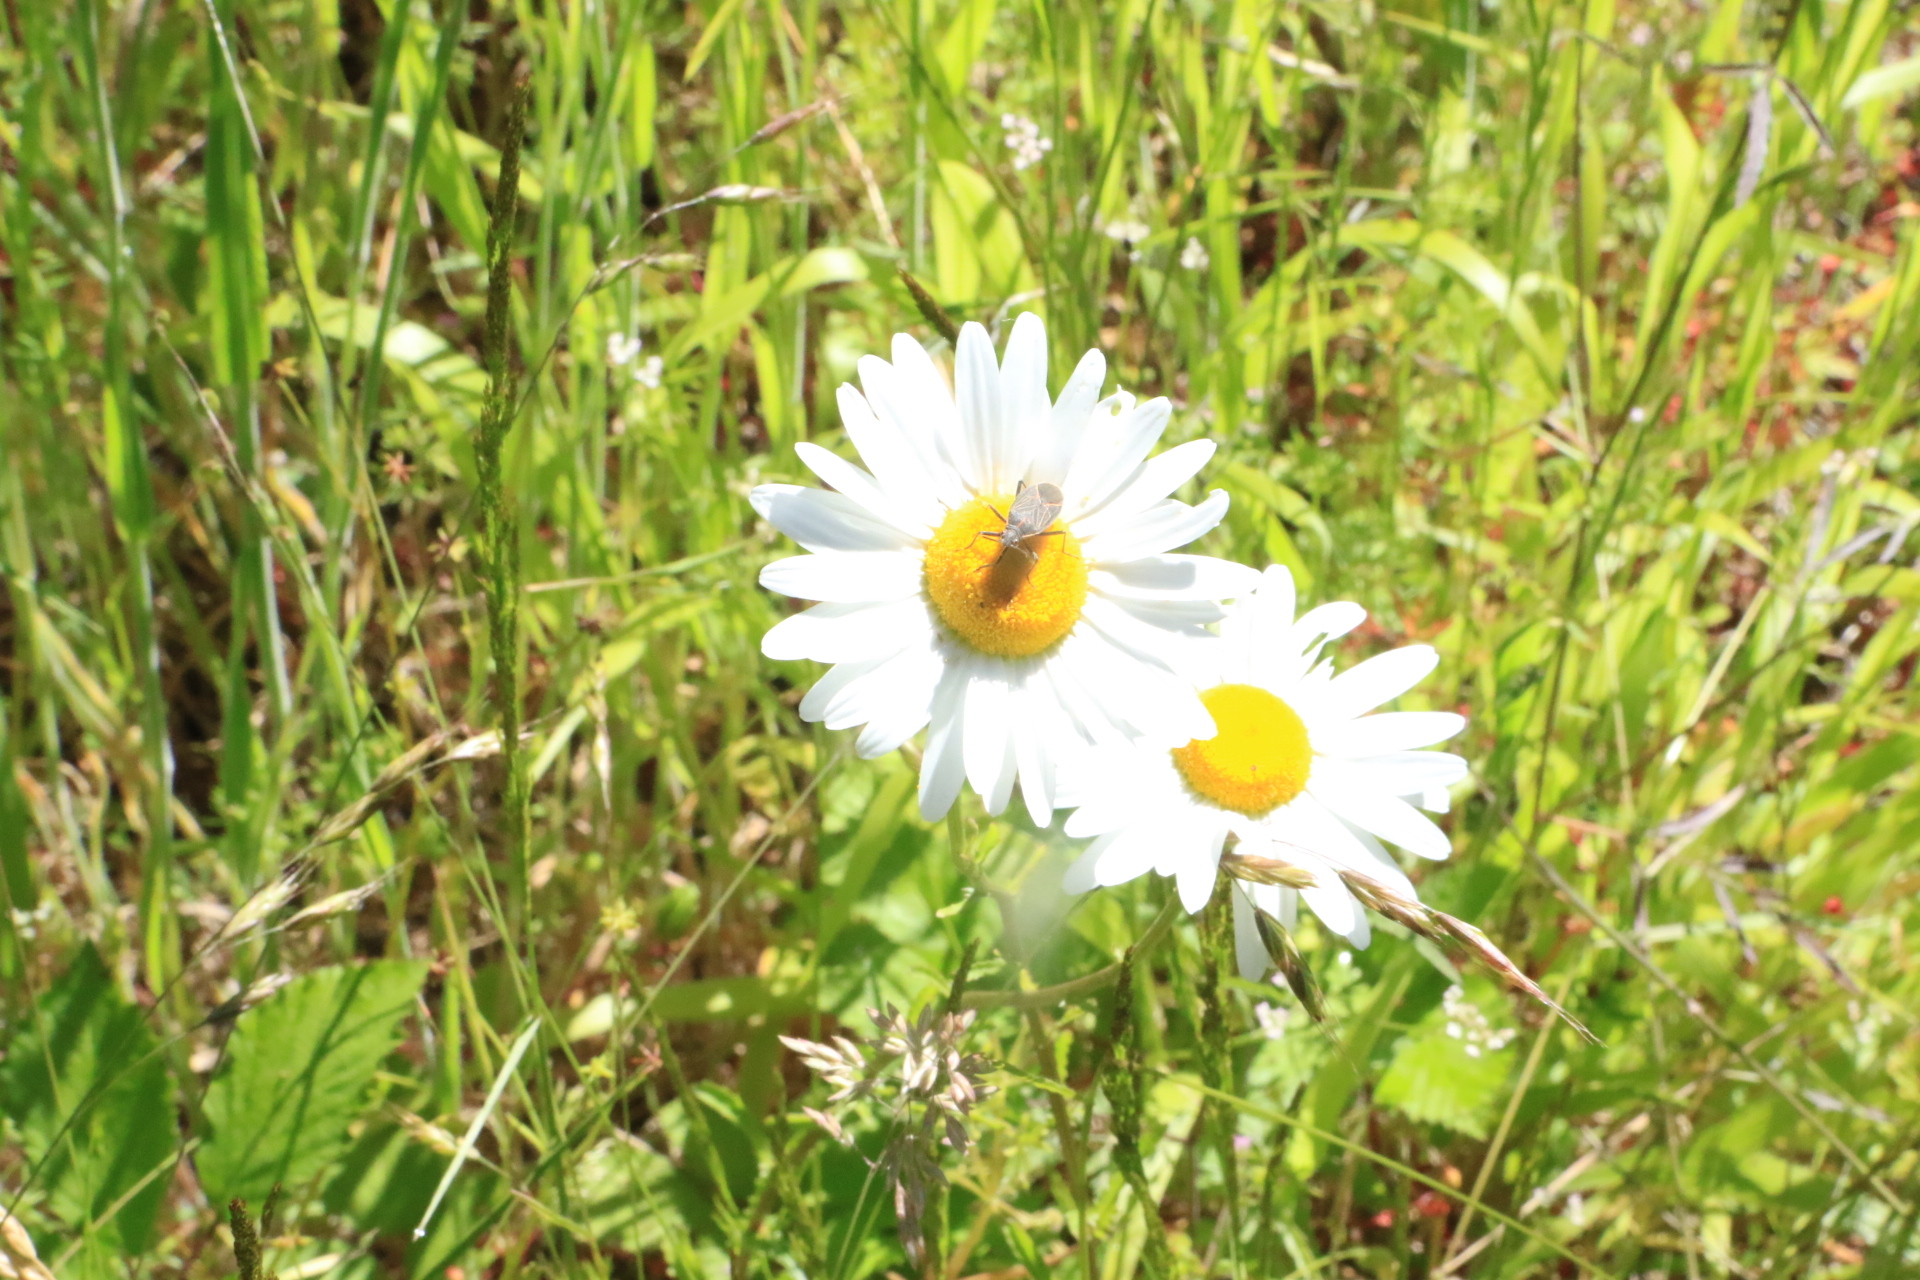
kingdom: Animalia
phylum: Arthropoda
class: Insecta
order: Hemiptera
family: Rhopalidae
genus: Boisea
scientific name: Boisea rubrolineata
